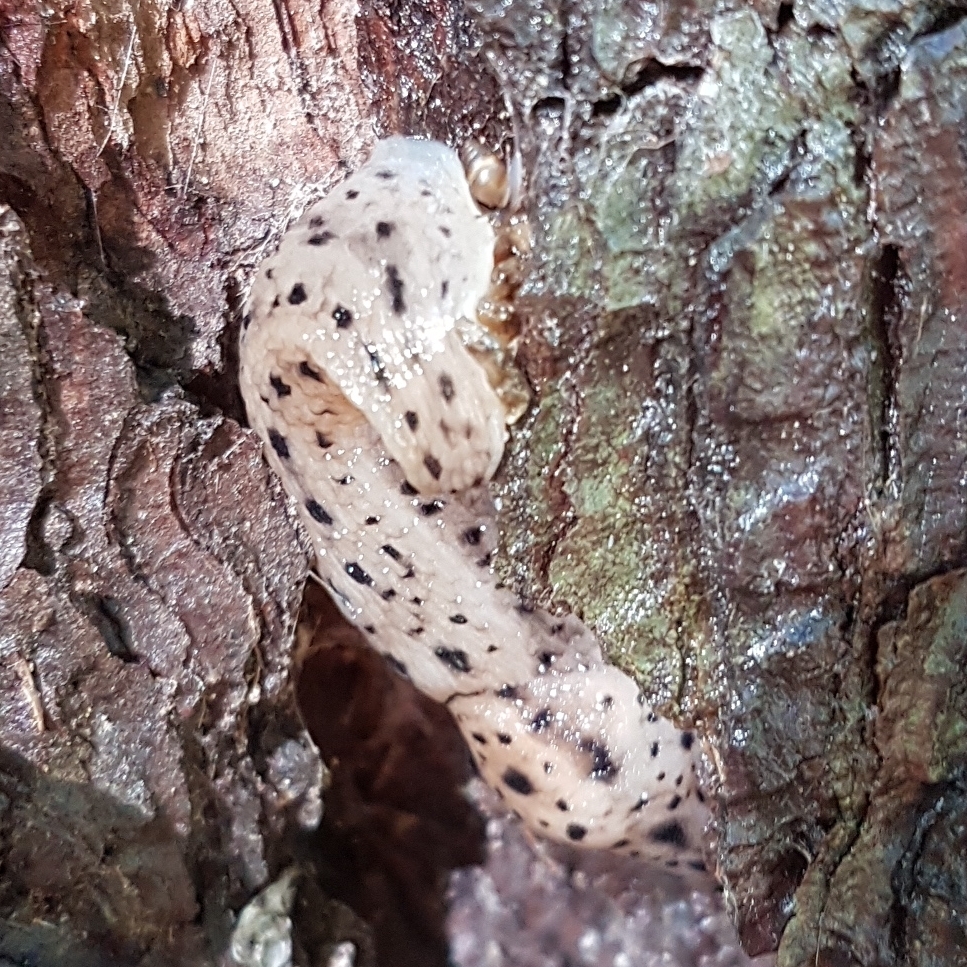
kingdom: Animalia
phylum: Mollusca
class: Gastropoda
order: Stylommatophora
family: Limacidae
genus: Limax
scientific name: Limax maximus
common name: Great grey slug
